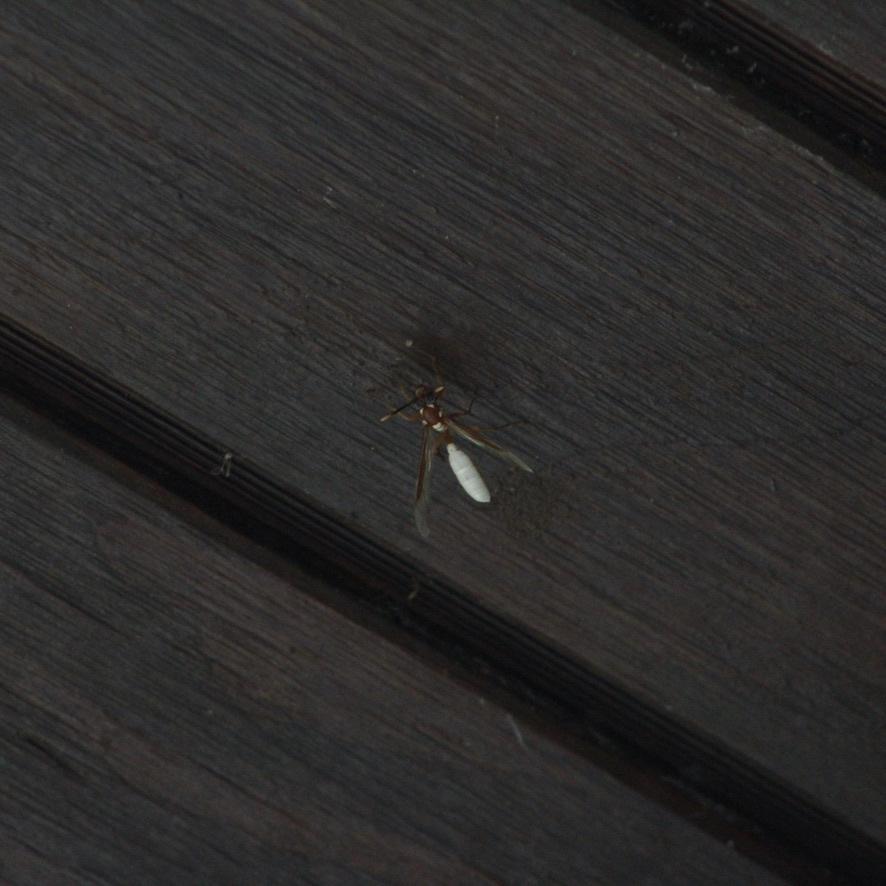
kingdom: Animalia
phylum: Arthropoda
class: Insecta
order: Hymenoptera
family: Vespidae
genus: Apoica
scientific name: Apoica gelida
